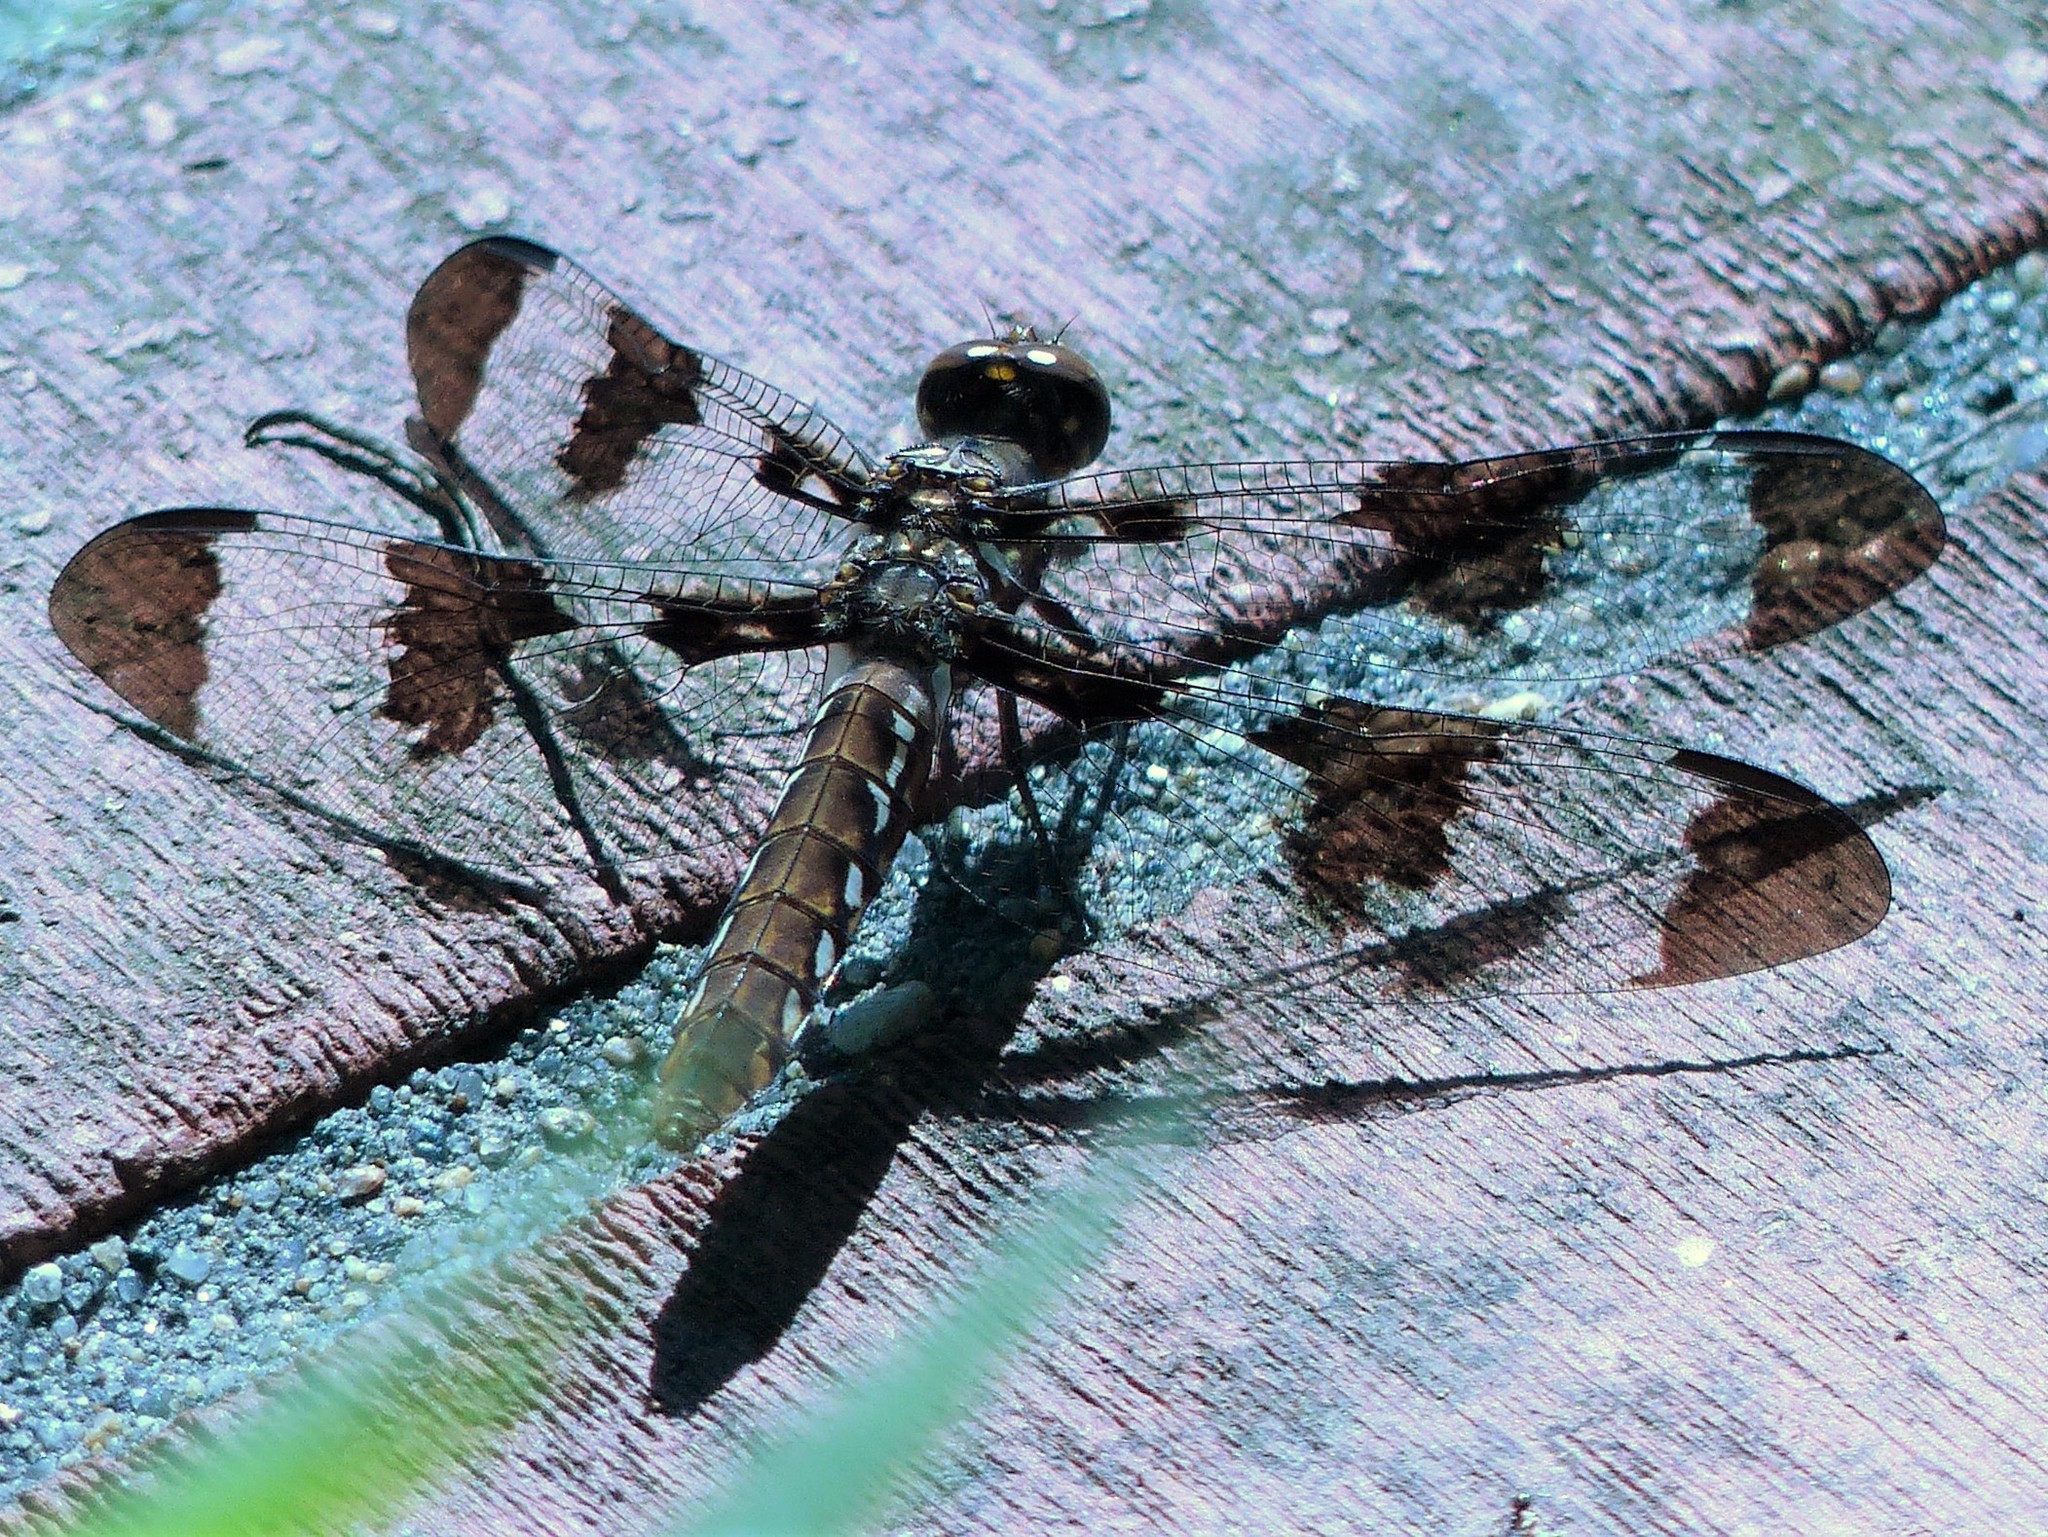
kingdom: Animalia
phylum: Arthropoda
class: Insecta
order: Odonata
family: Libellulidae
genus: Plathemis
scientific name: Plathemis lydia
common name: Common whitetail
